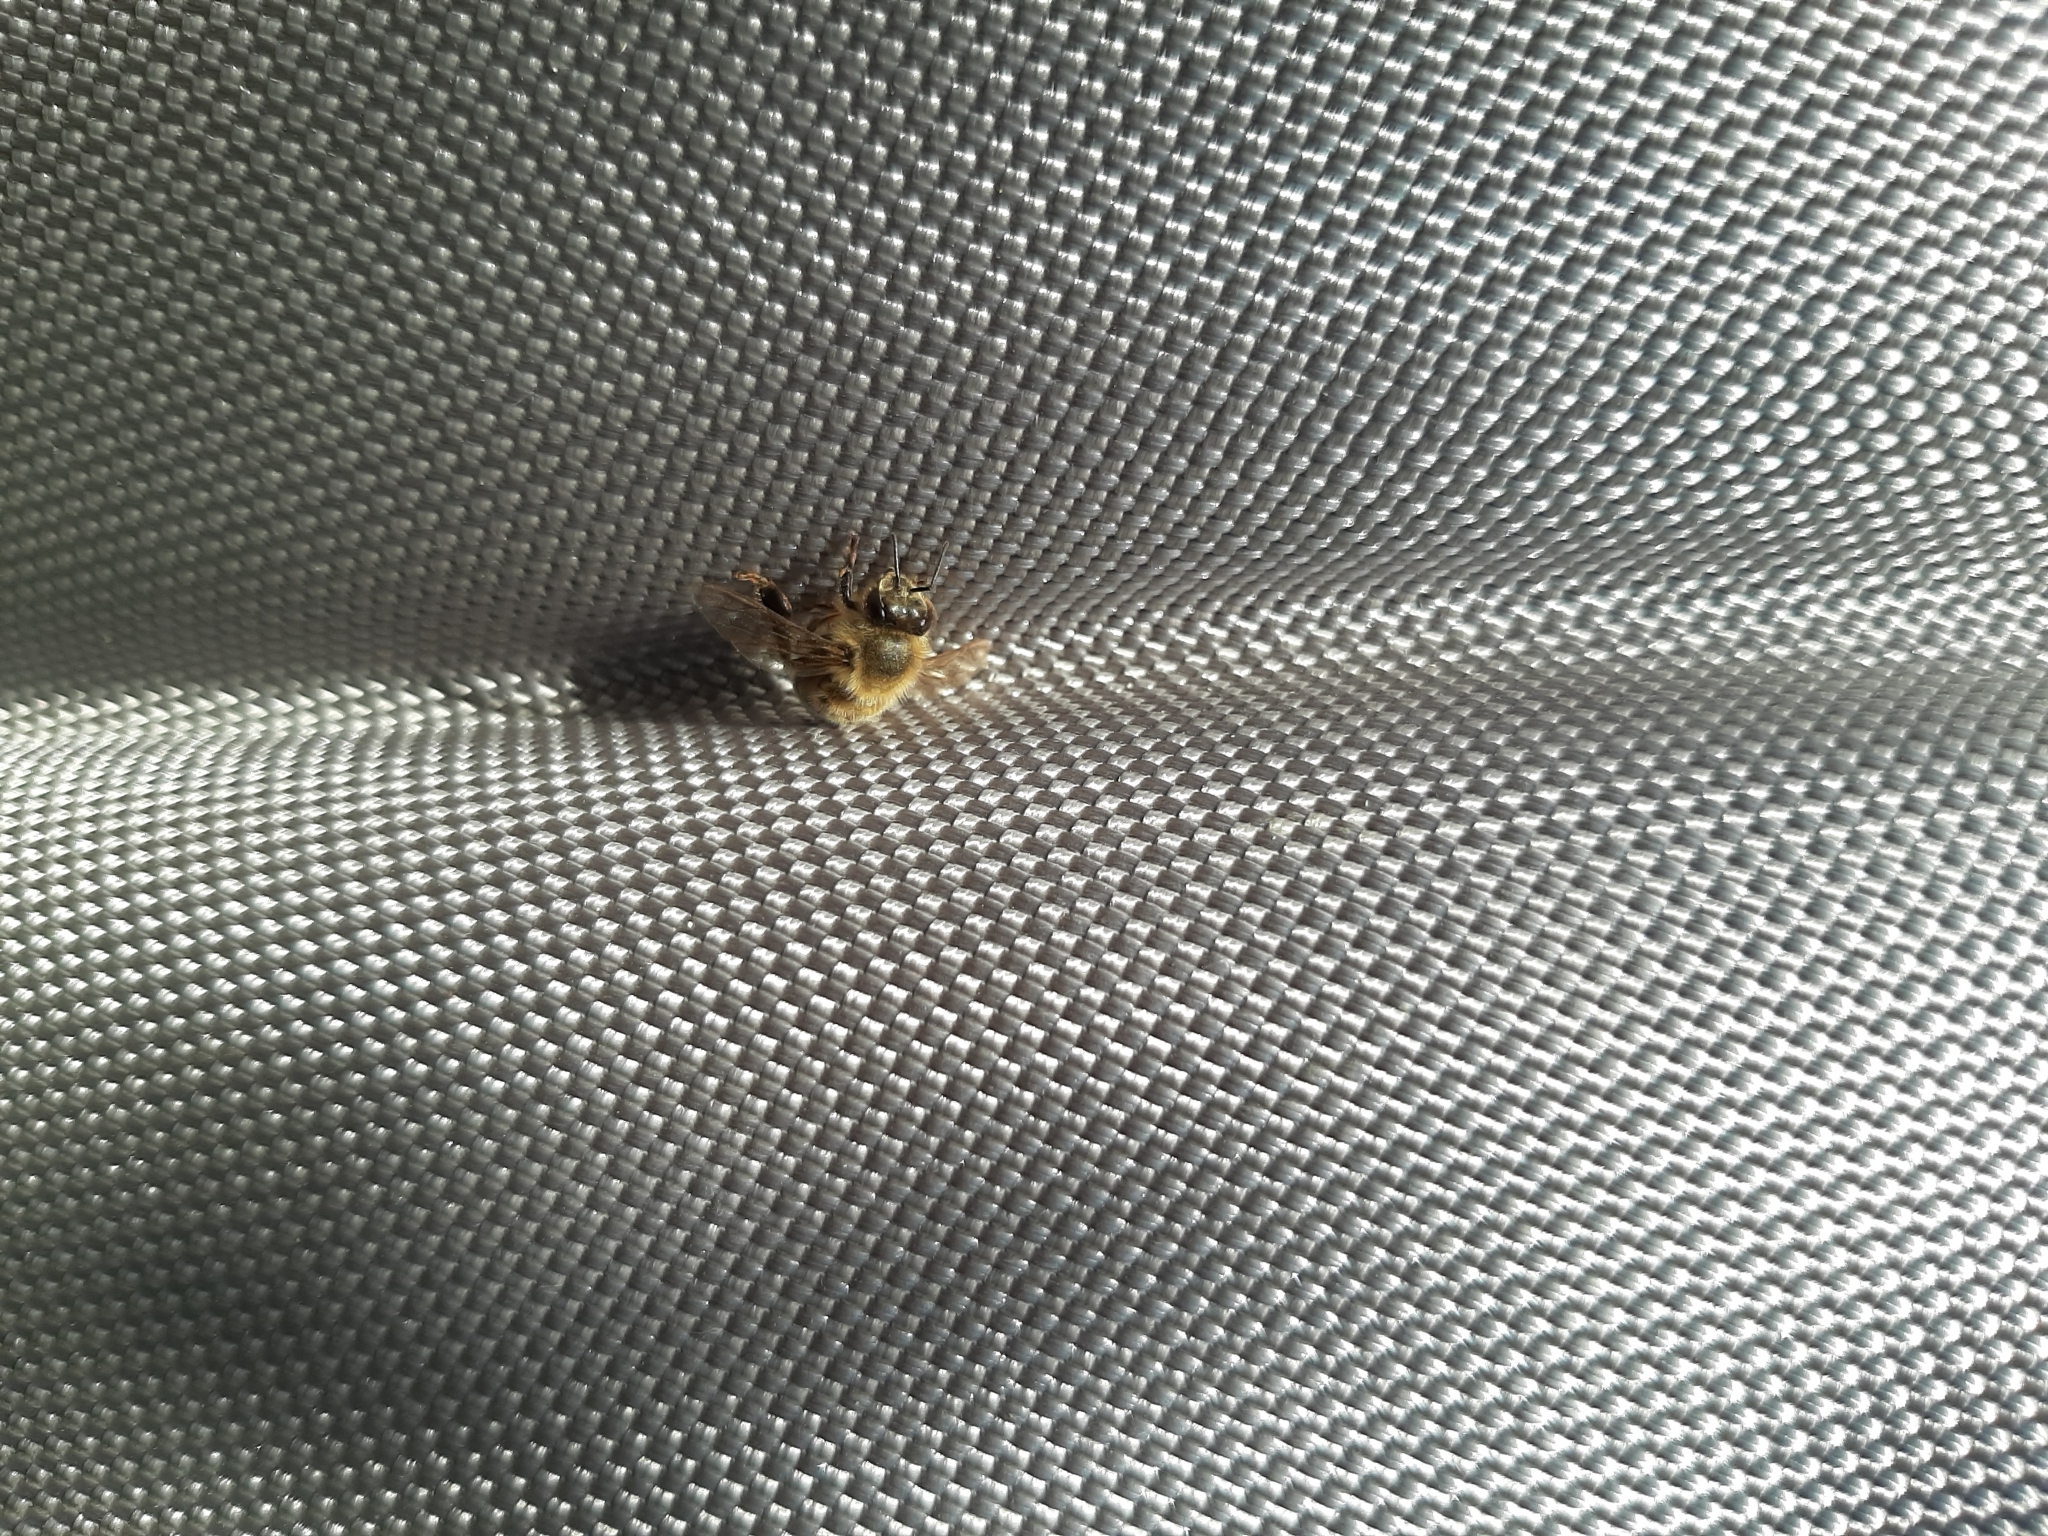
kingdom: Animalia
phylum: Arthropoda
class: Insecta
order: Hymenoptera
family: Apidae
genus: Apis
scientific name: Apis mellifera
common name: Honey bee
